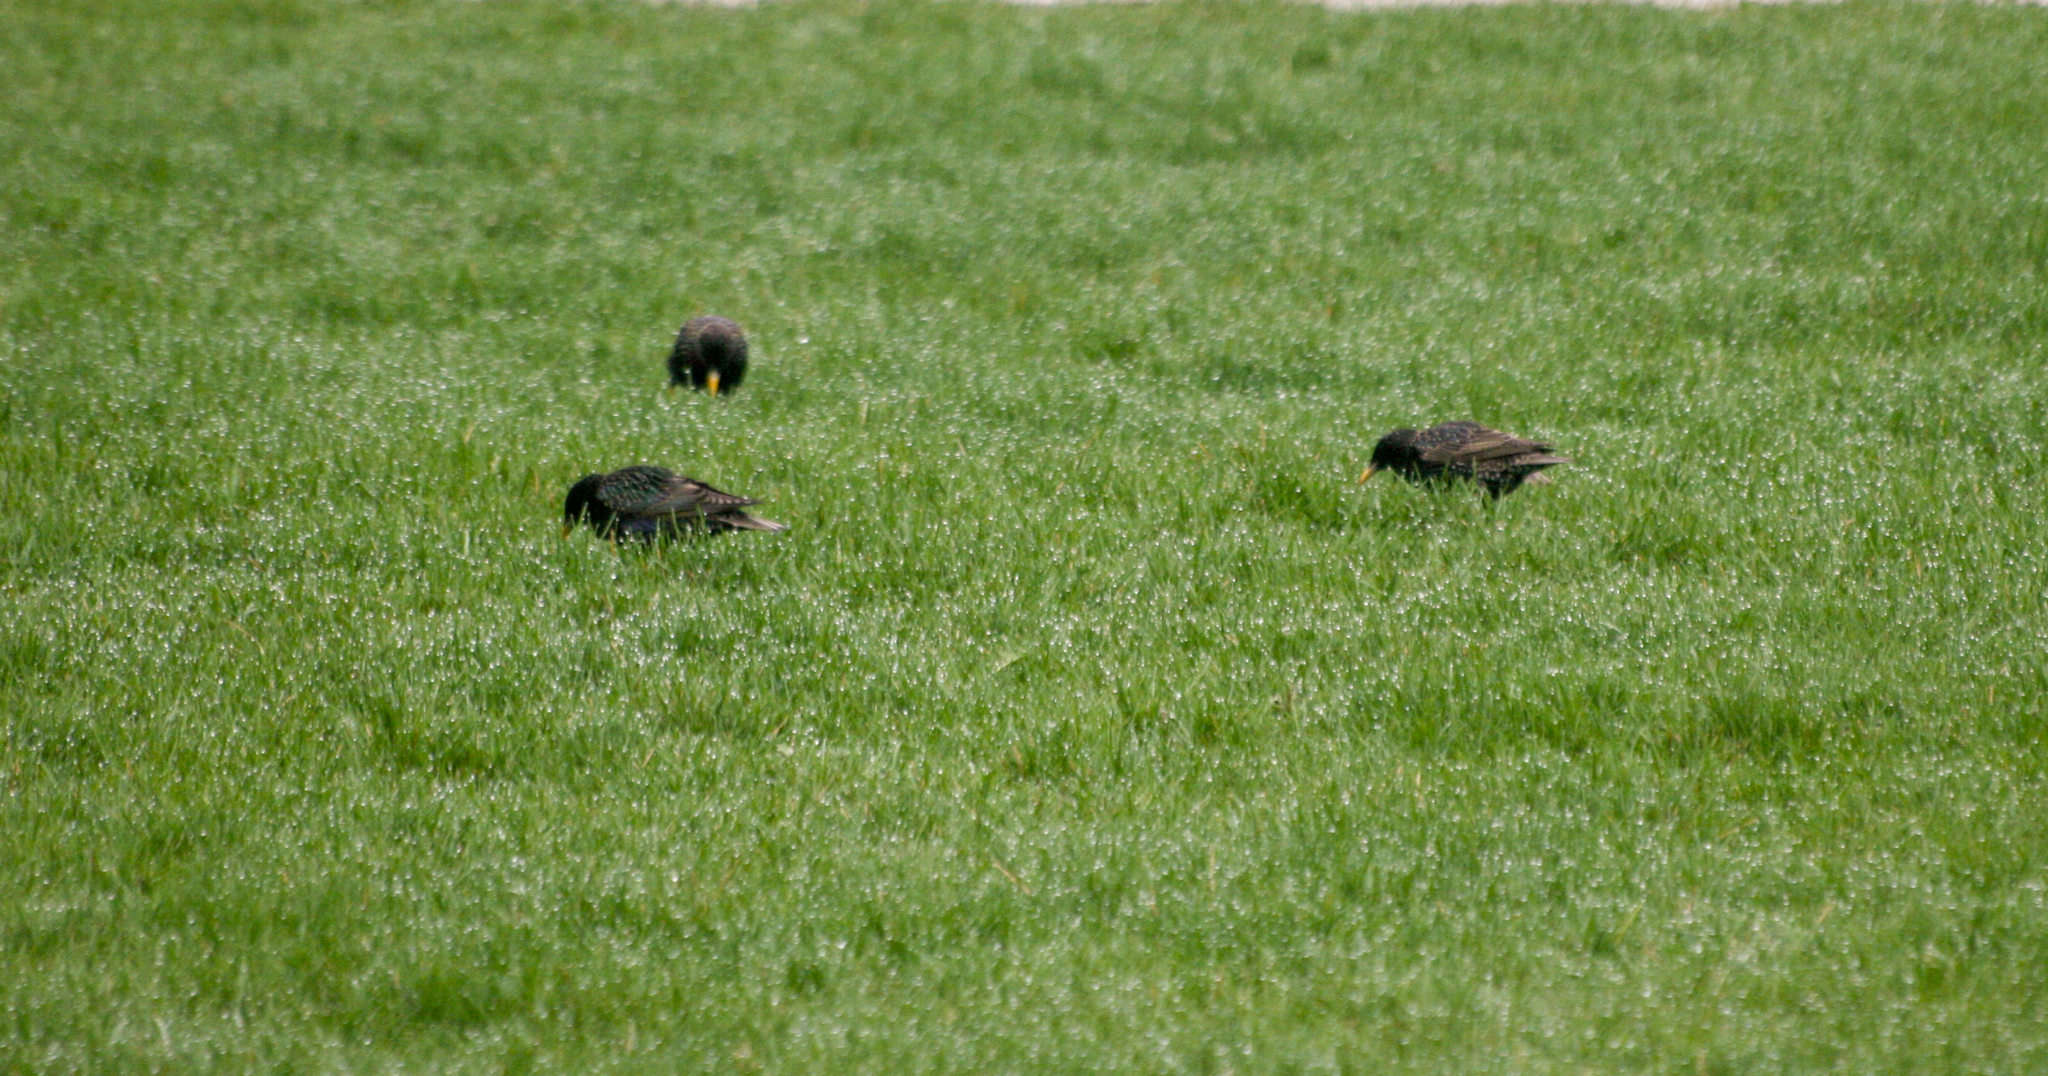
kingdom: Animalia
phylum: Chordata
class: Aves
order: Passeriformes
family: Sturnidae
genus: Sturnus
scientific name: Sturnus vulgaris
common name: Common starling
